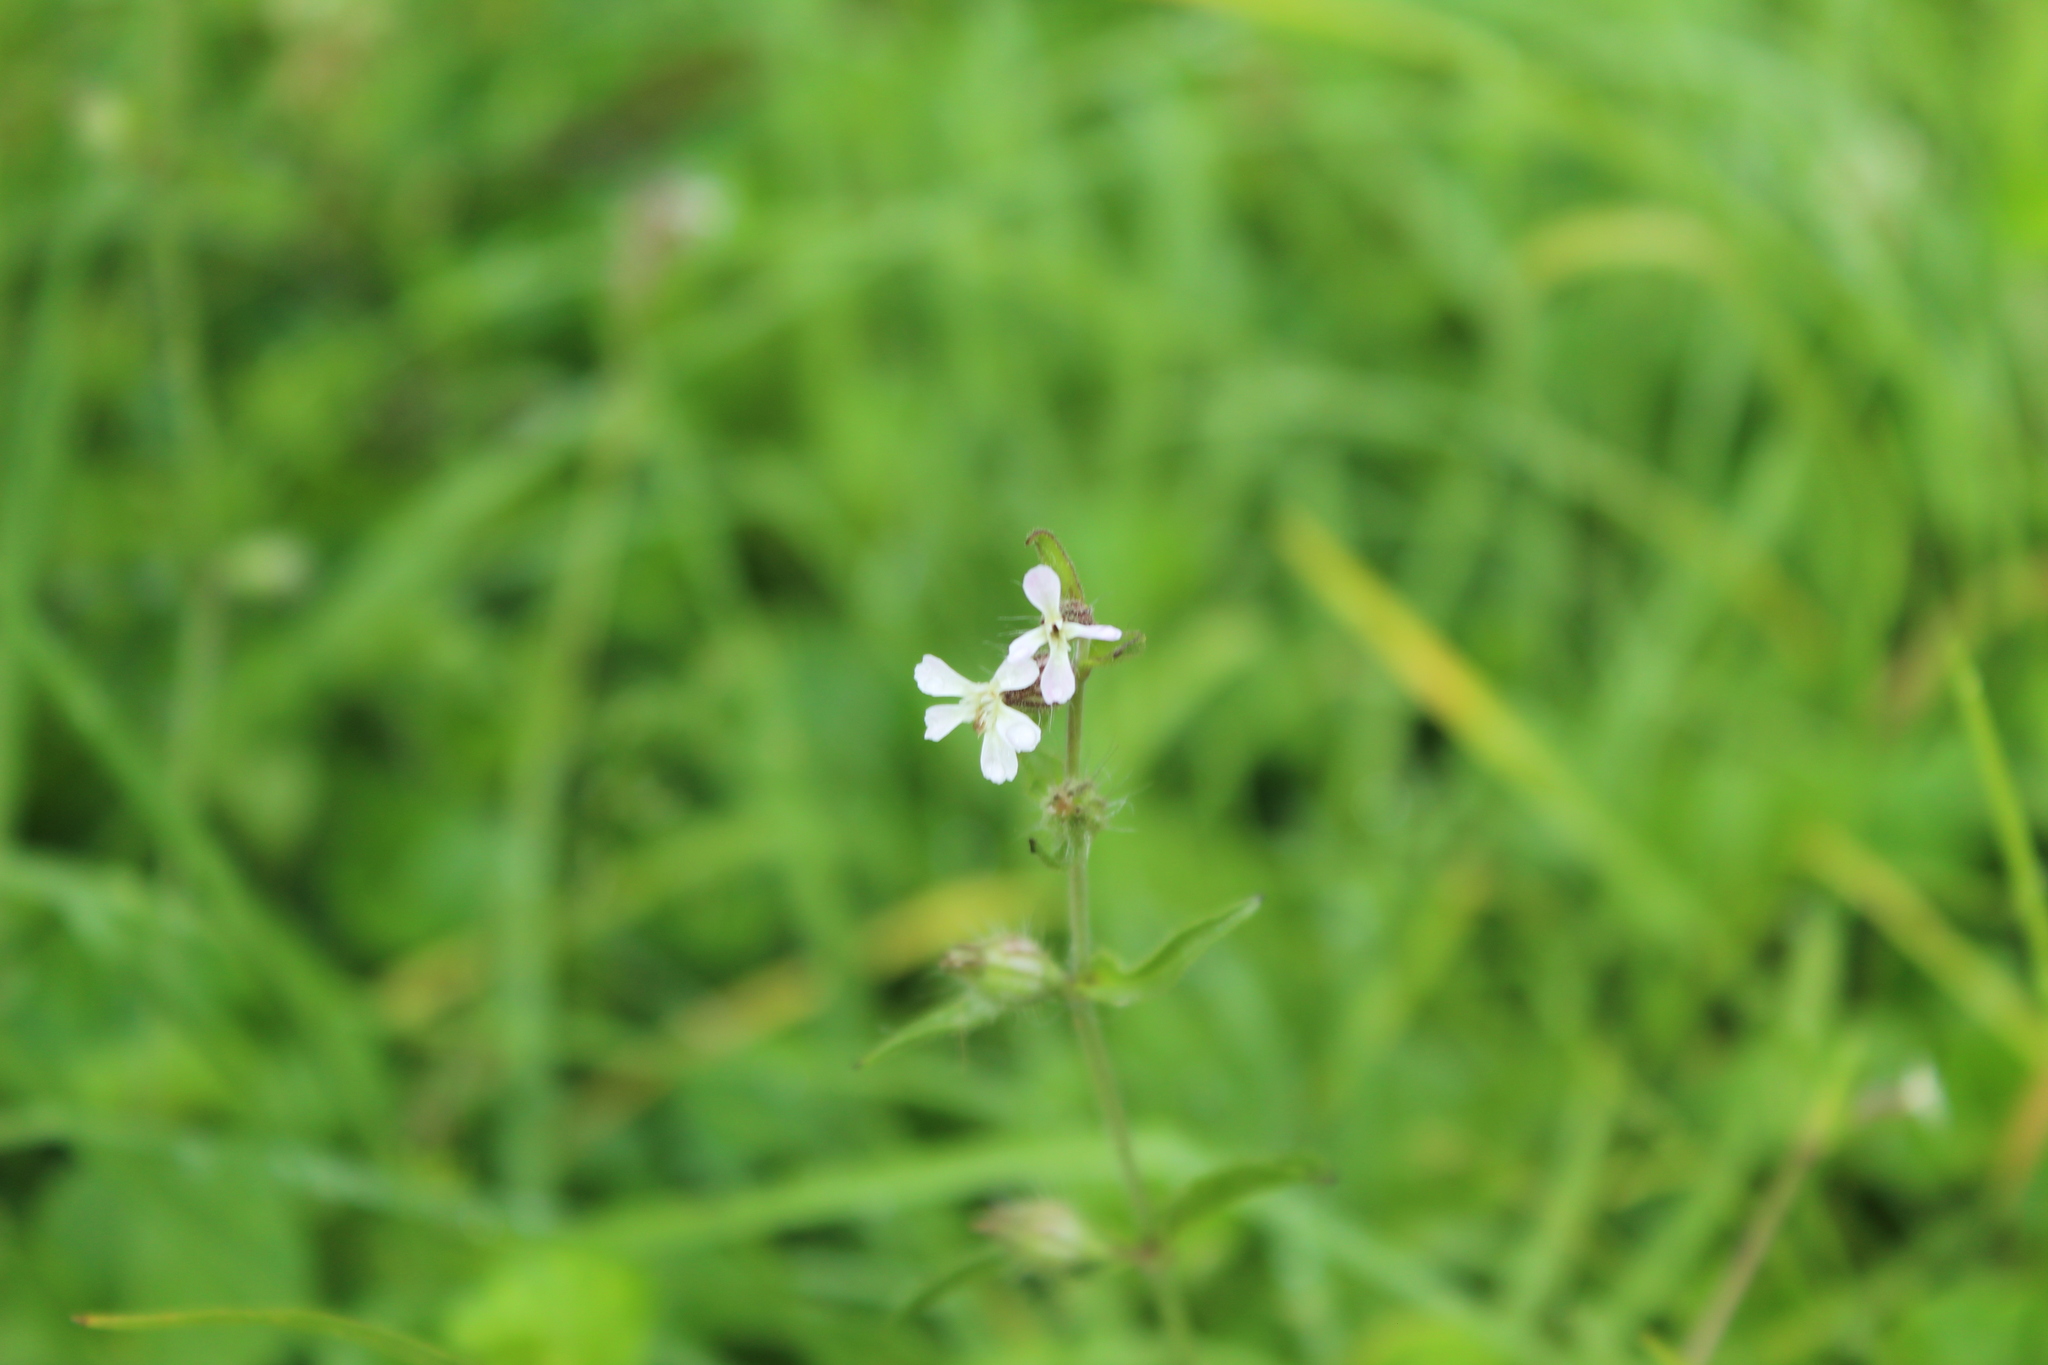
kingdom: Plantae
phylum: Tracheophyta
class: Magnoliopsida
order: Caryophyllales
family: Caryophyllaceae
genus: Silene
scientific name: Silene gallica
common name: Small-flowered catchfly
